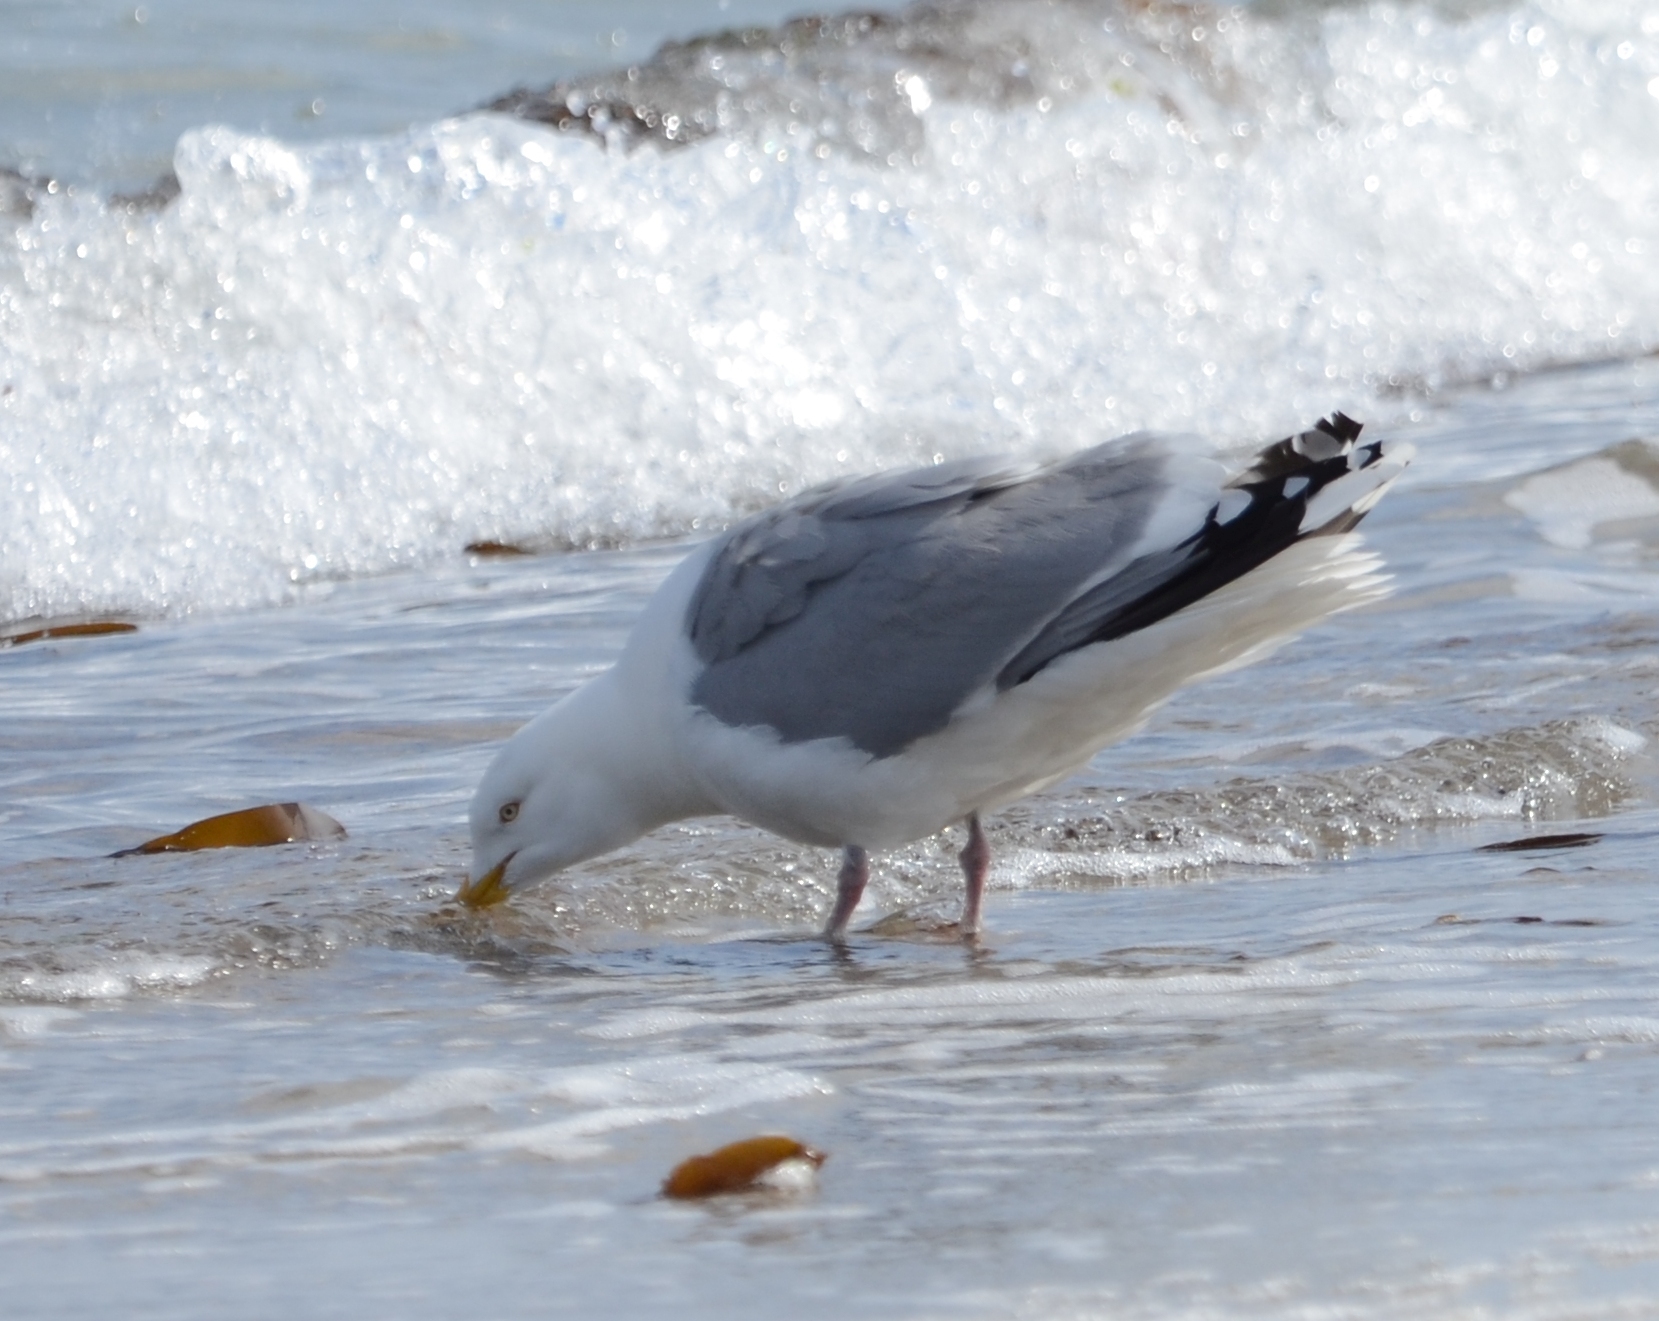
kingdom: Animalia
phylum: Chordata
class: Aves
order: Charadriiformes
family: Laridae
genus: Larus
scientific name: Larus argentatus
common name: Herring gull
